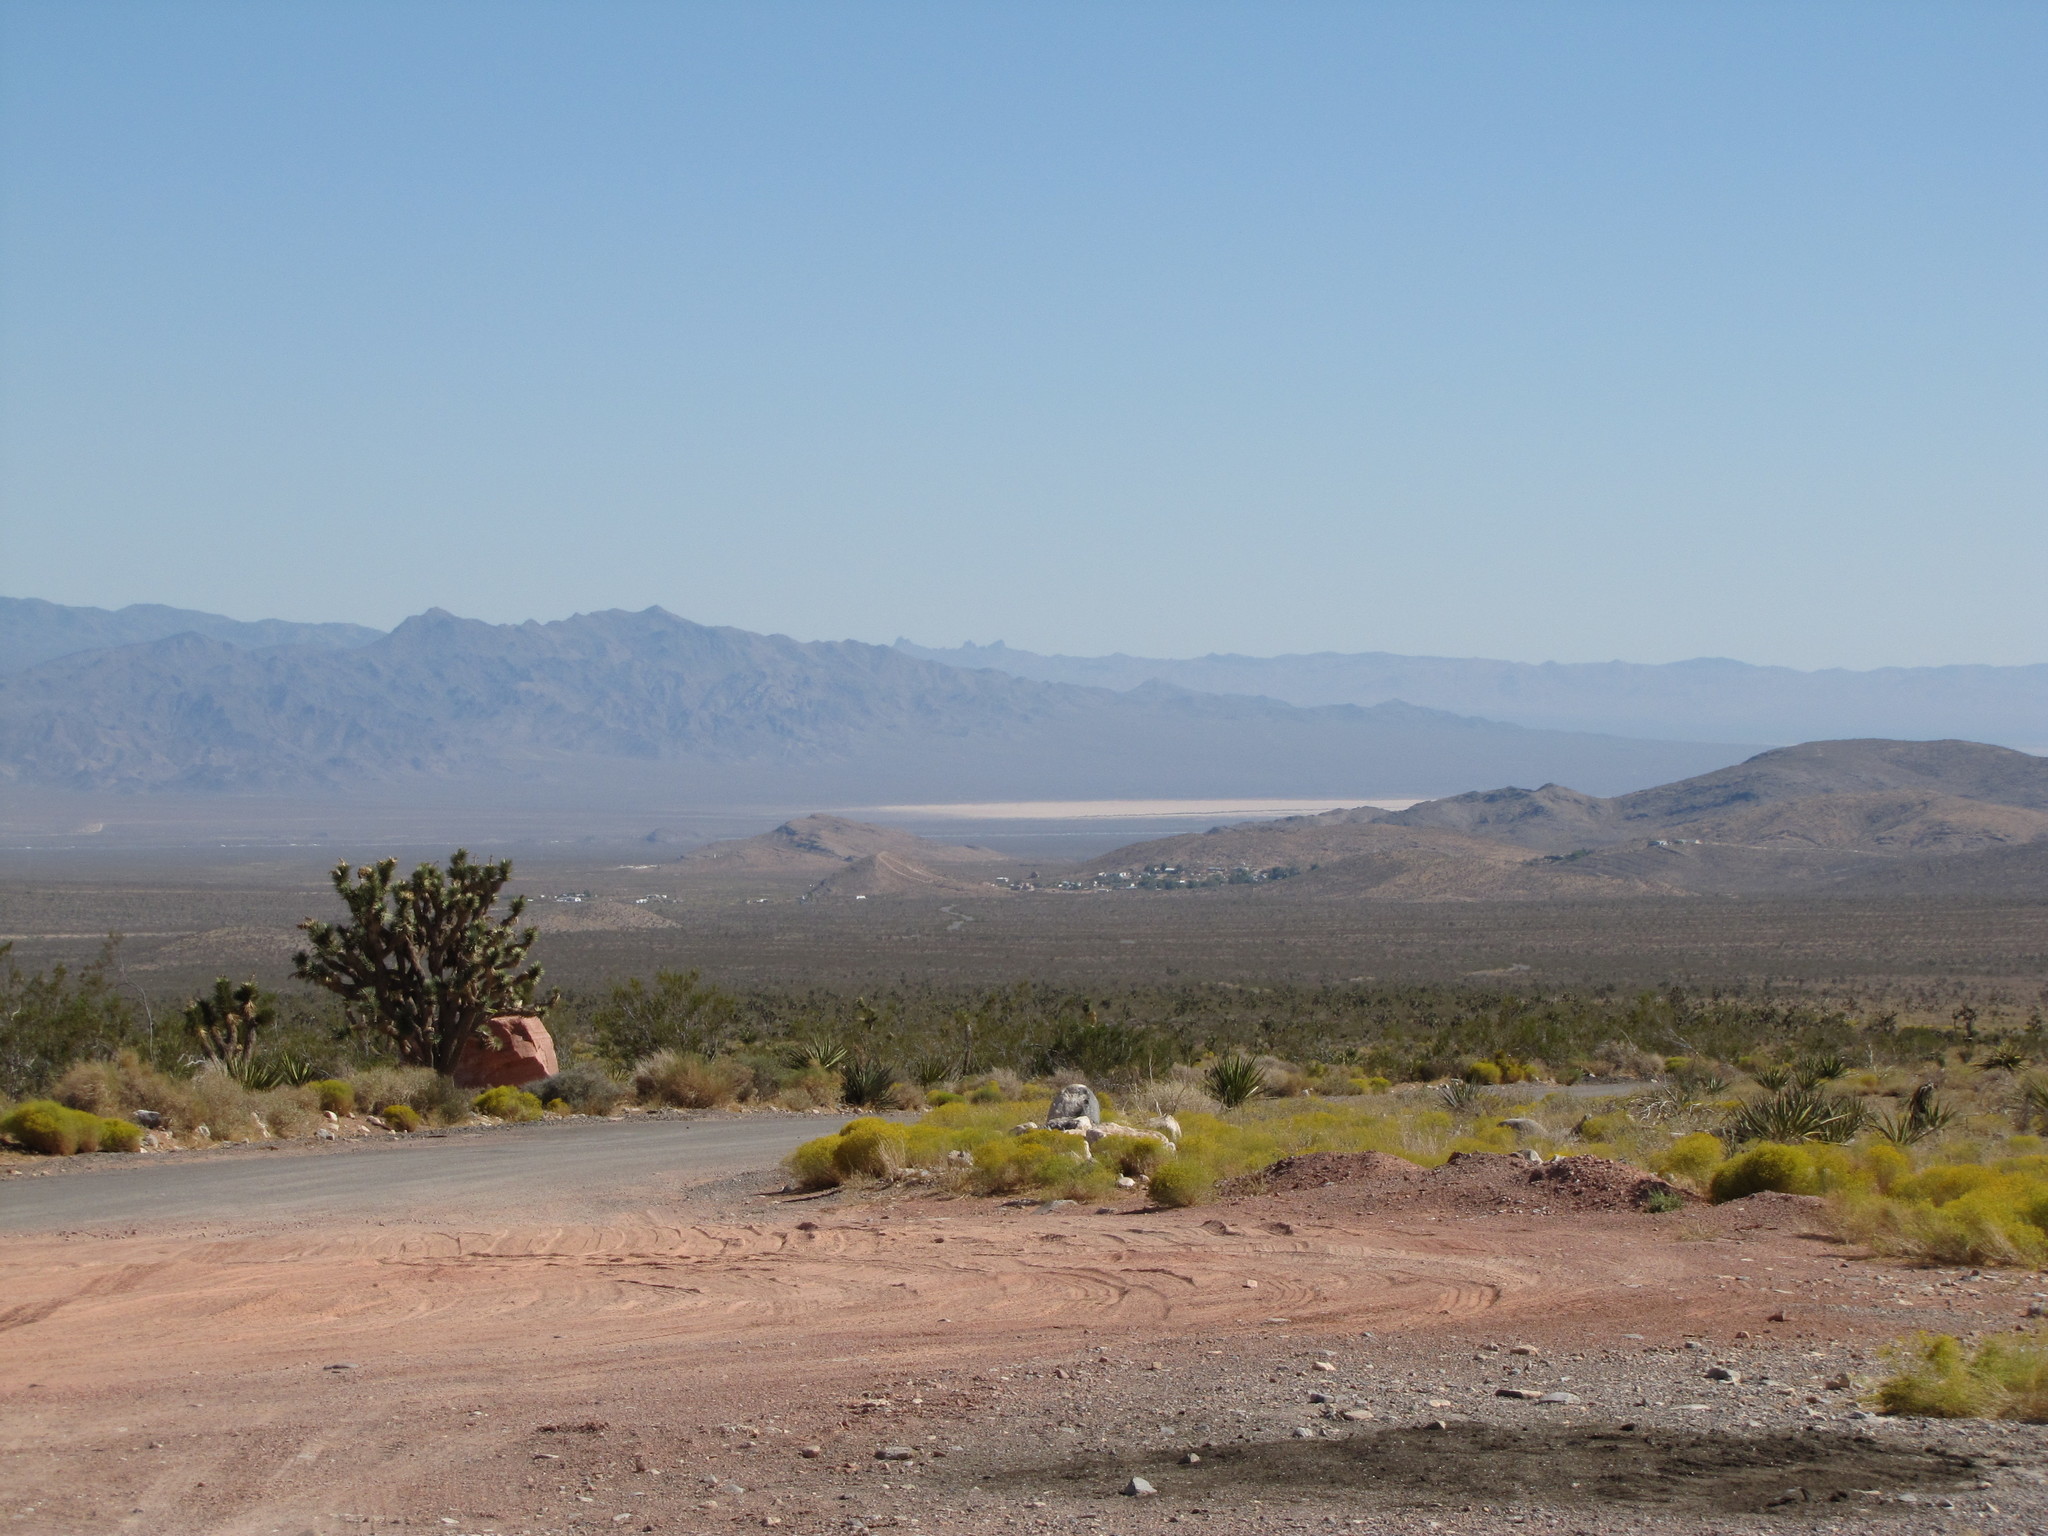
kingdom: Plantae
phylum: Tracheophyta
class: Liliopsida
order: Asparagales
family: Asparagaceae
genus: Yucca
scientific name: Yucca brevifolia
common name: Joshua tree
